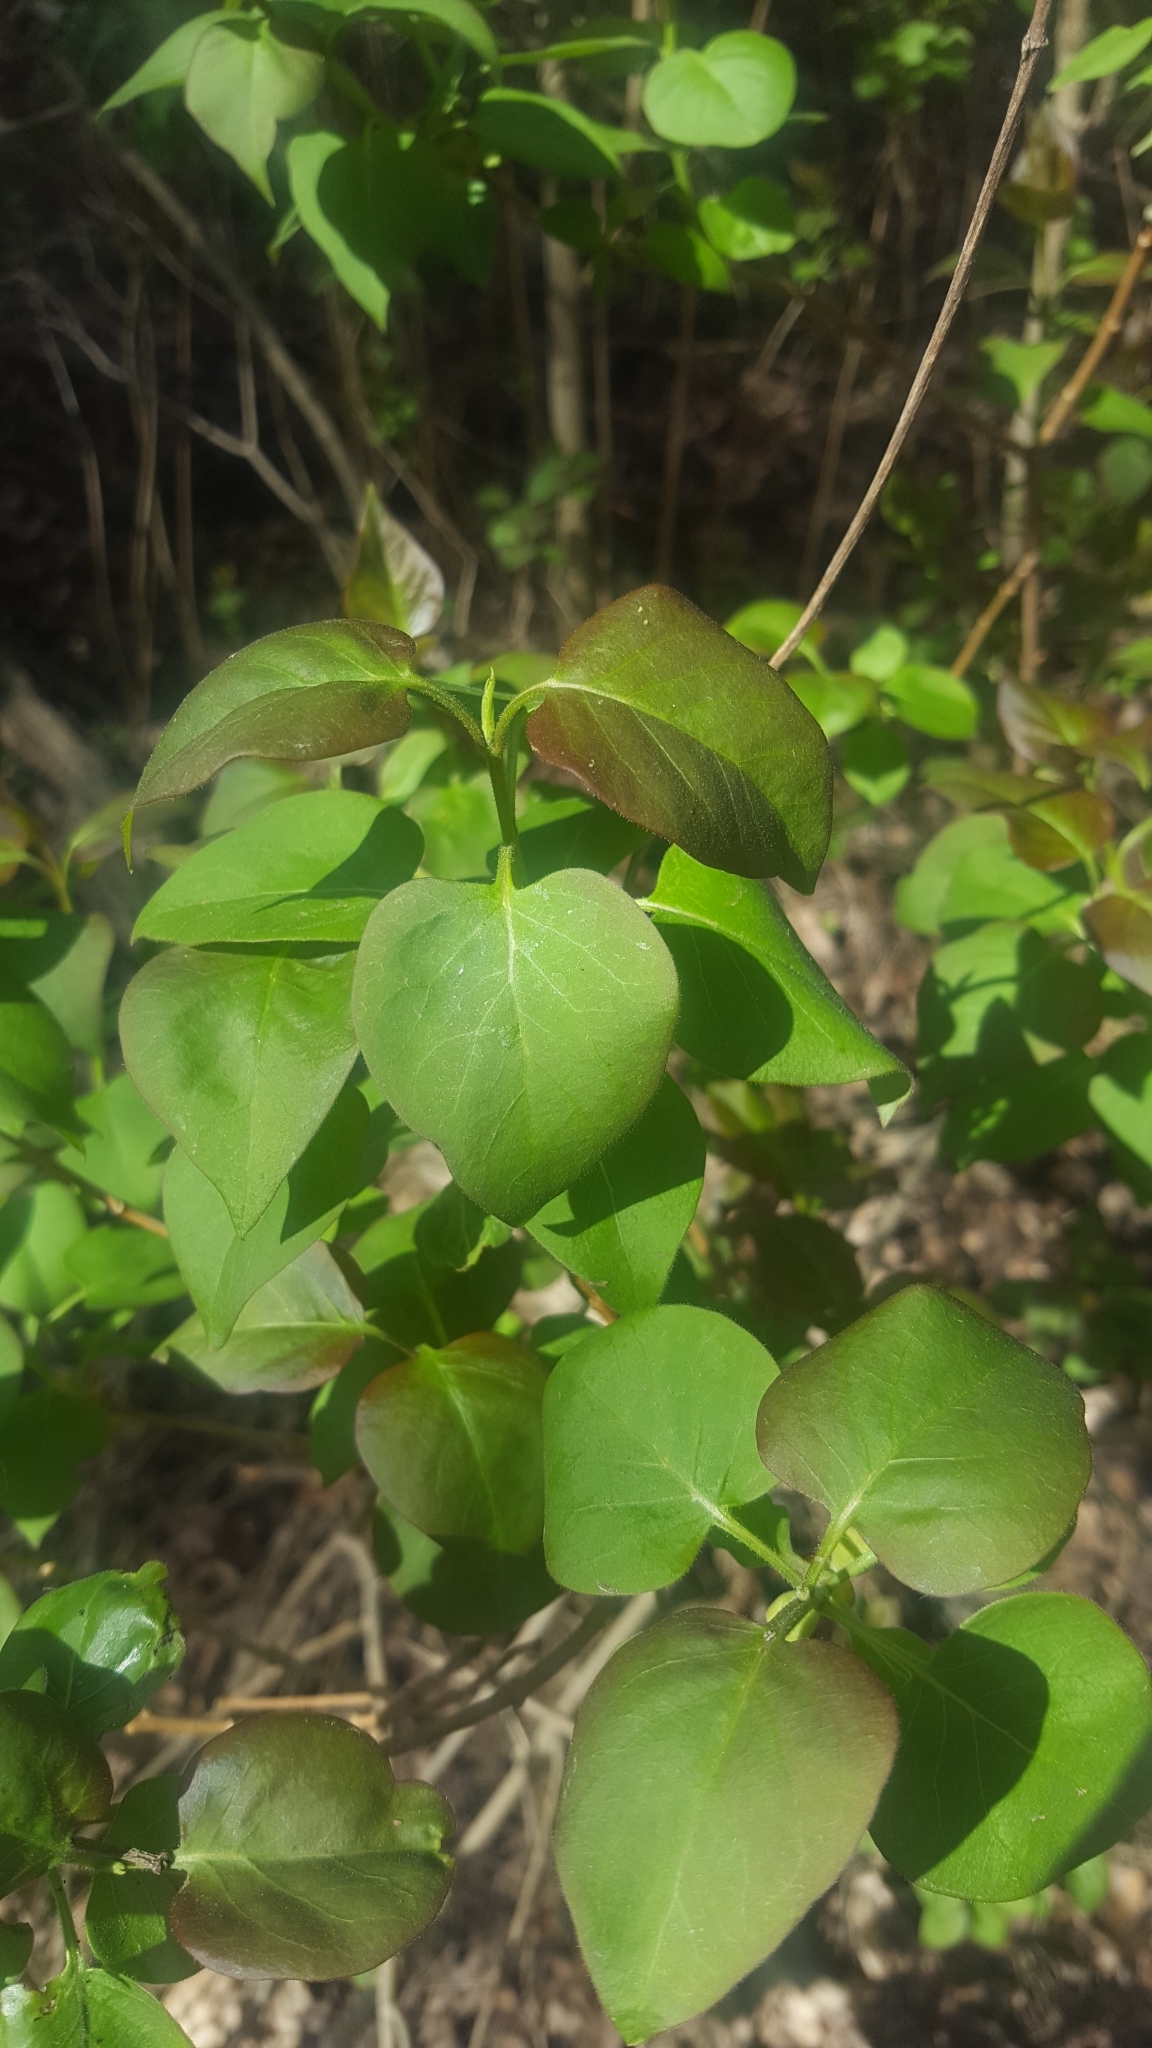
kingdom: Plantae
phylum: Tracheophyta
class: Magnoliopsida
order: Lamiales
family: Oleaceae
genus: Syringa
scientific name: Syringa vulgaris
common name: Common lilac
